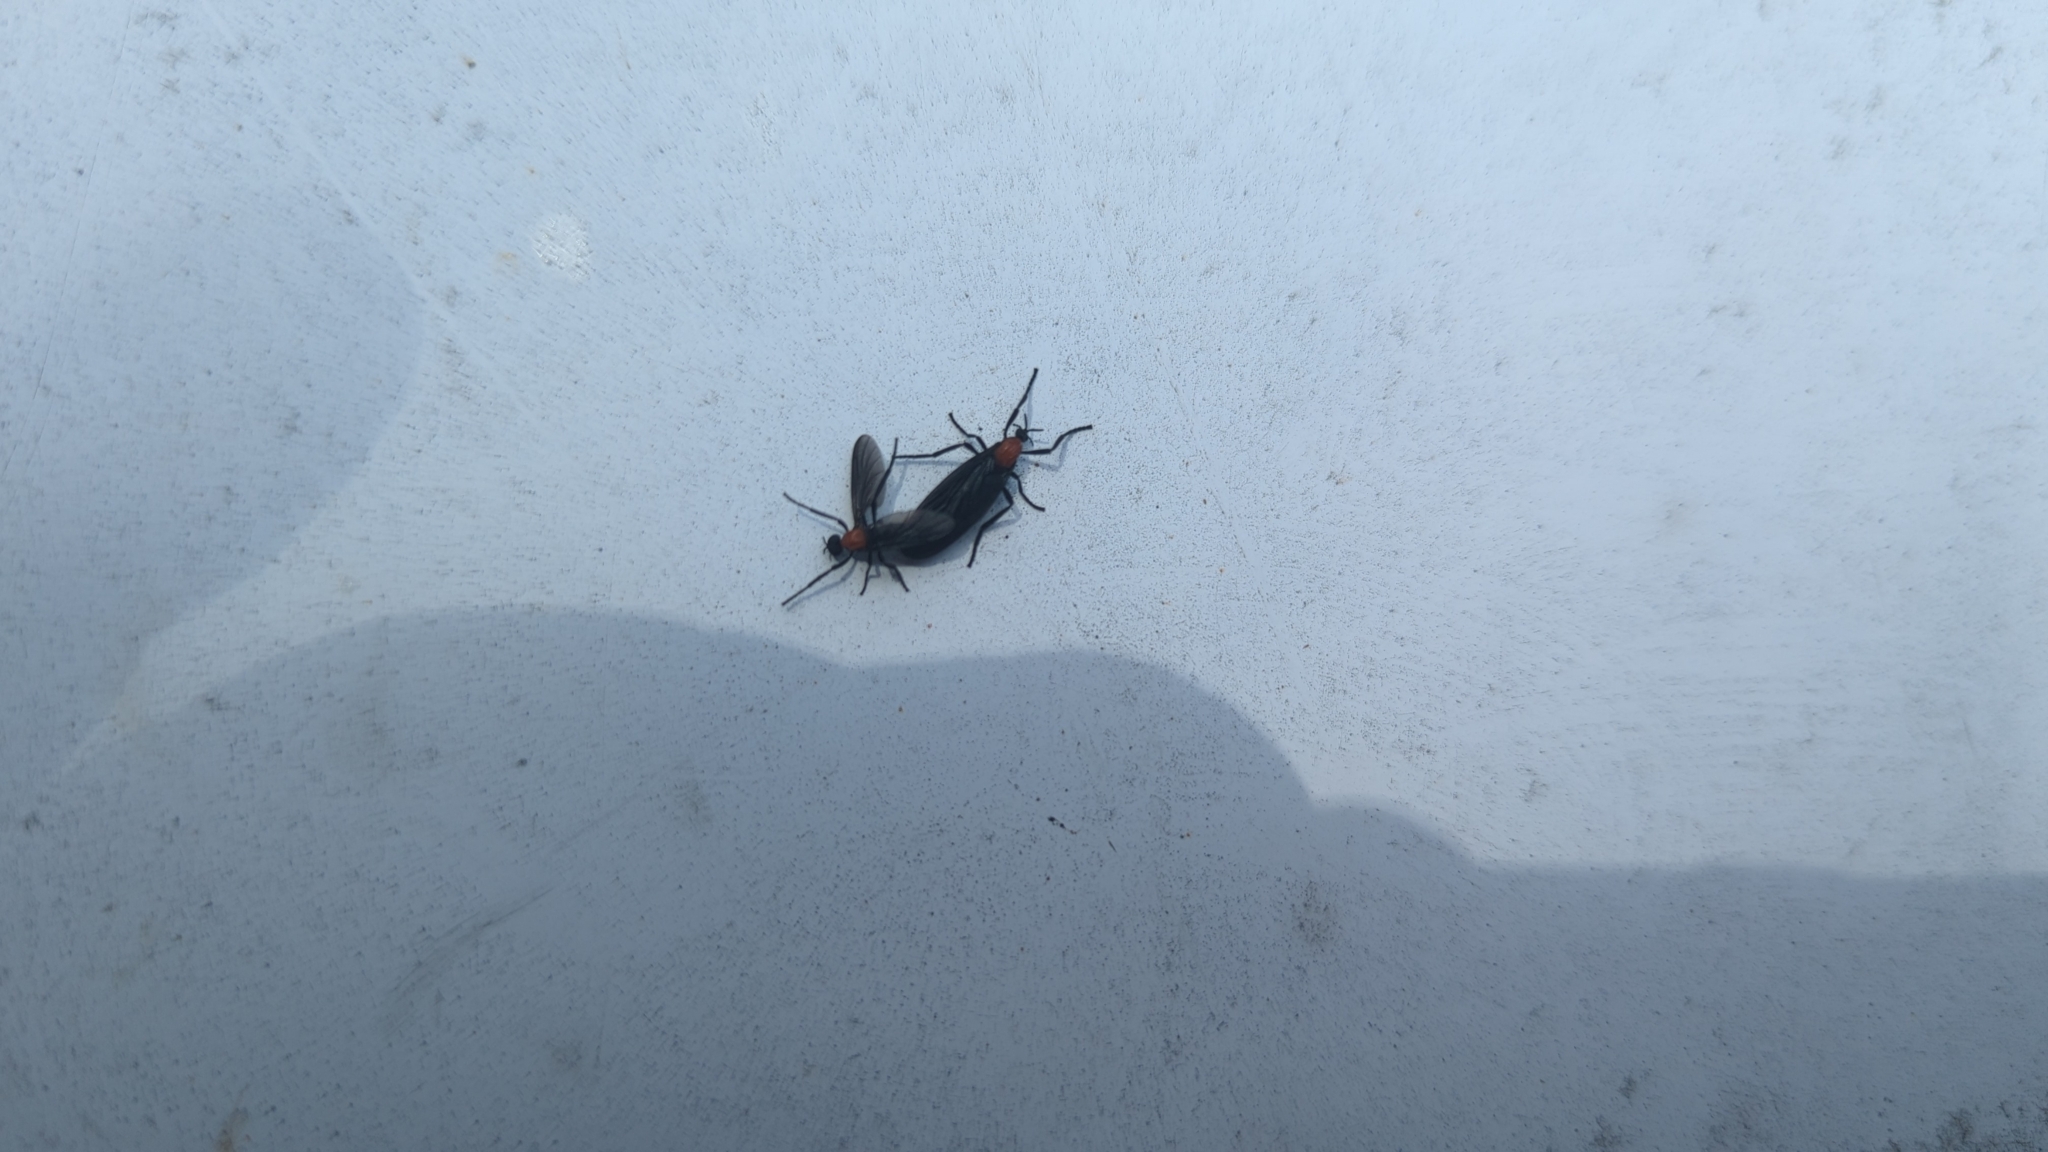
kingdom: Animalia
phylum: Arthropoda
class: Insecta
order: Diptera
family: Bibionidae
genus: Plecia
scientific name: Plecia nearctica
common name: March fly
